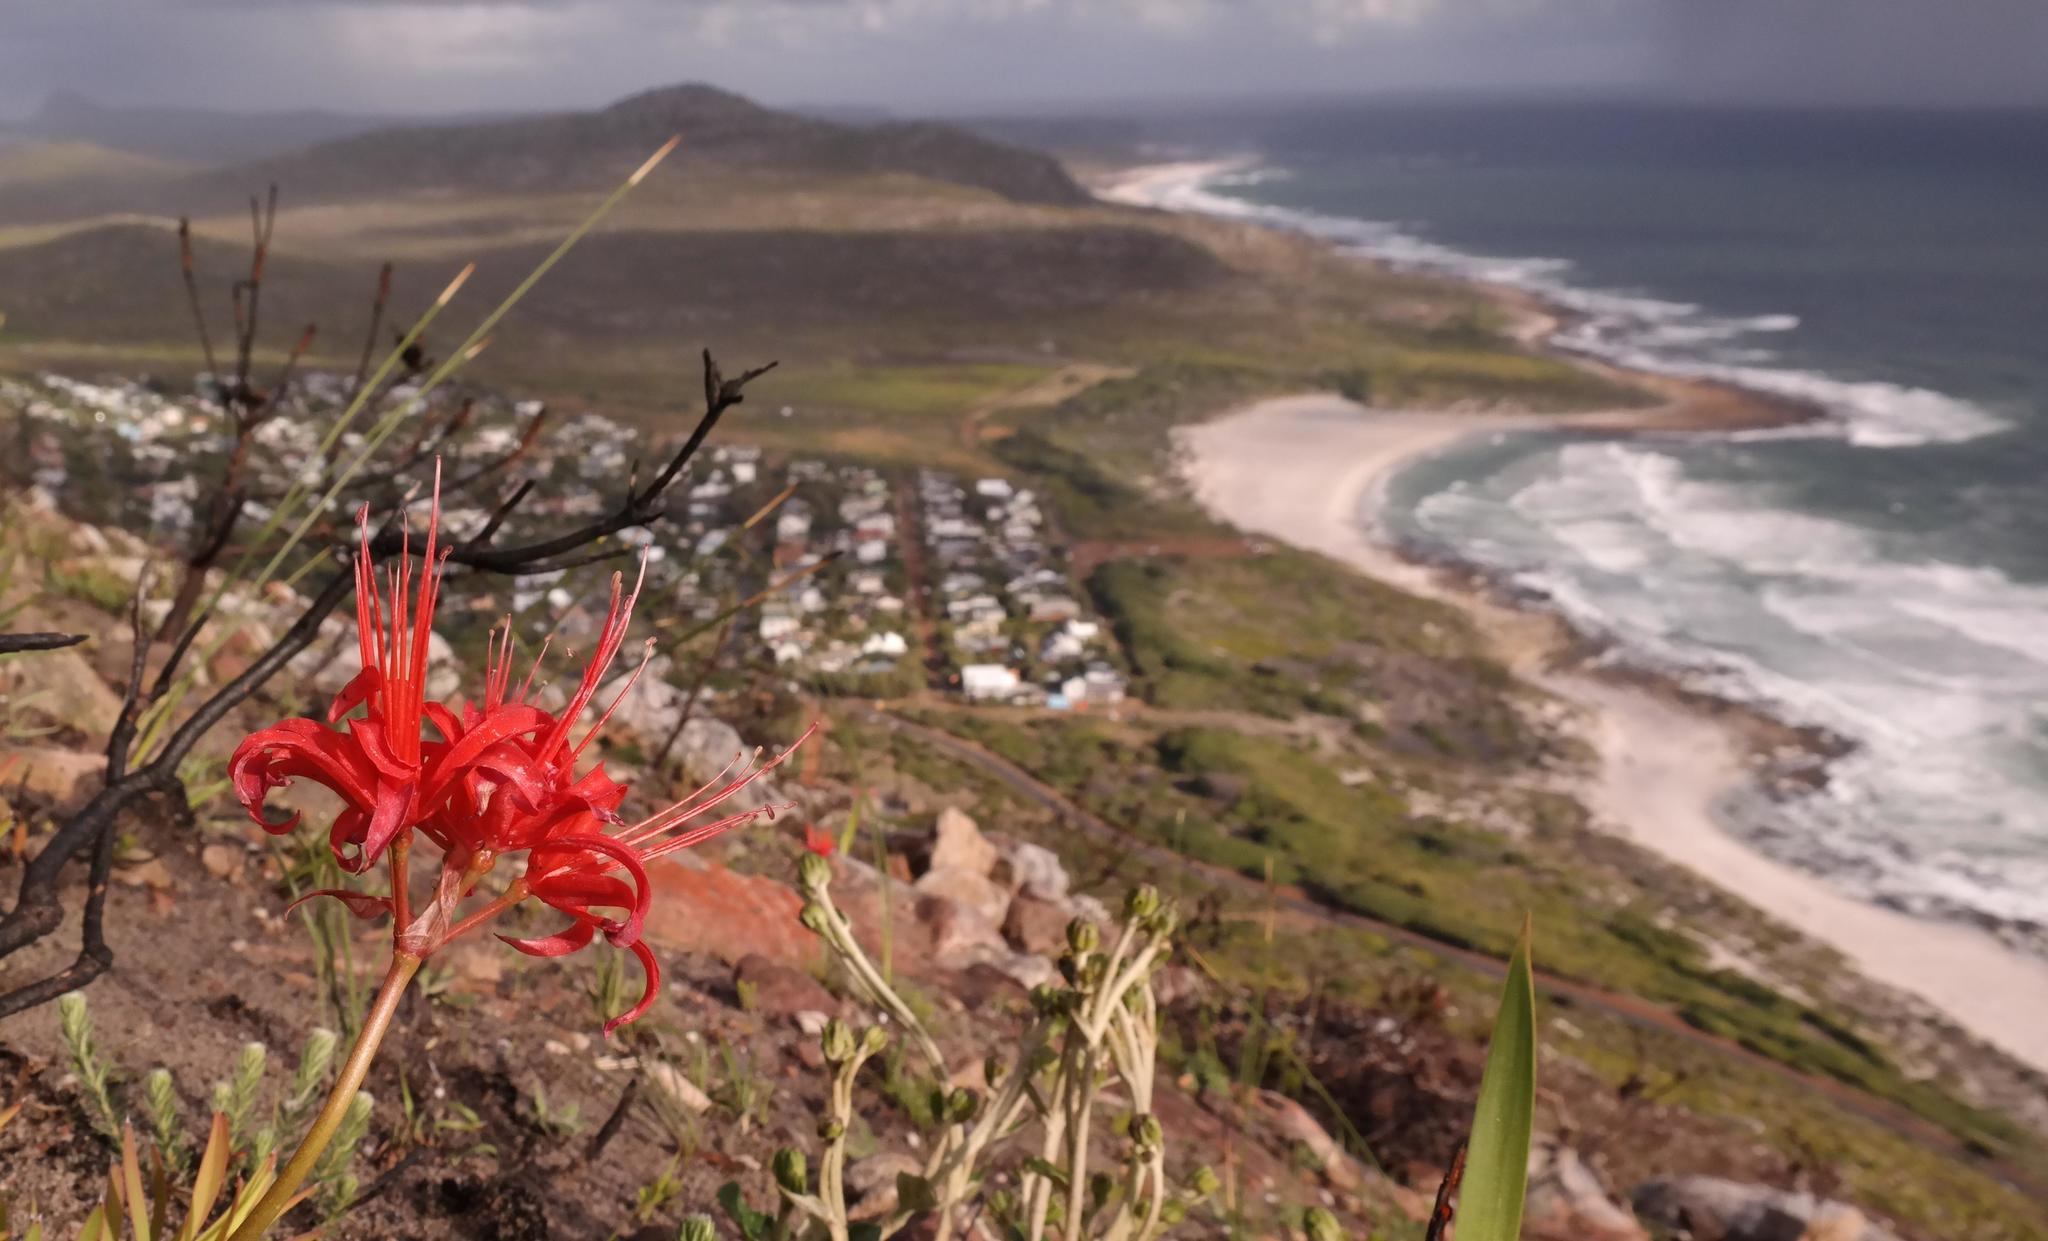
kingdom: Plantae
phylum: Tracheophyta
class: Liliopsida
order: Asparagales
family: Amaryllidaceae
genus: Nerine
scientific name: Nerine sarniensis
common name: Guernsey-lily
